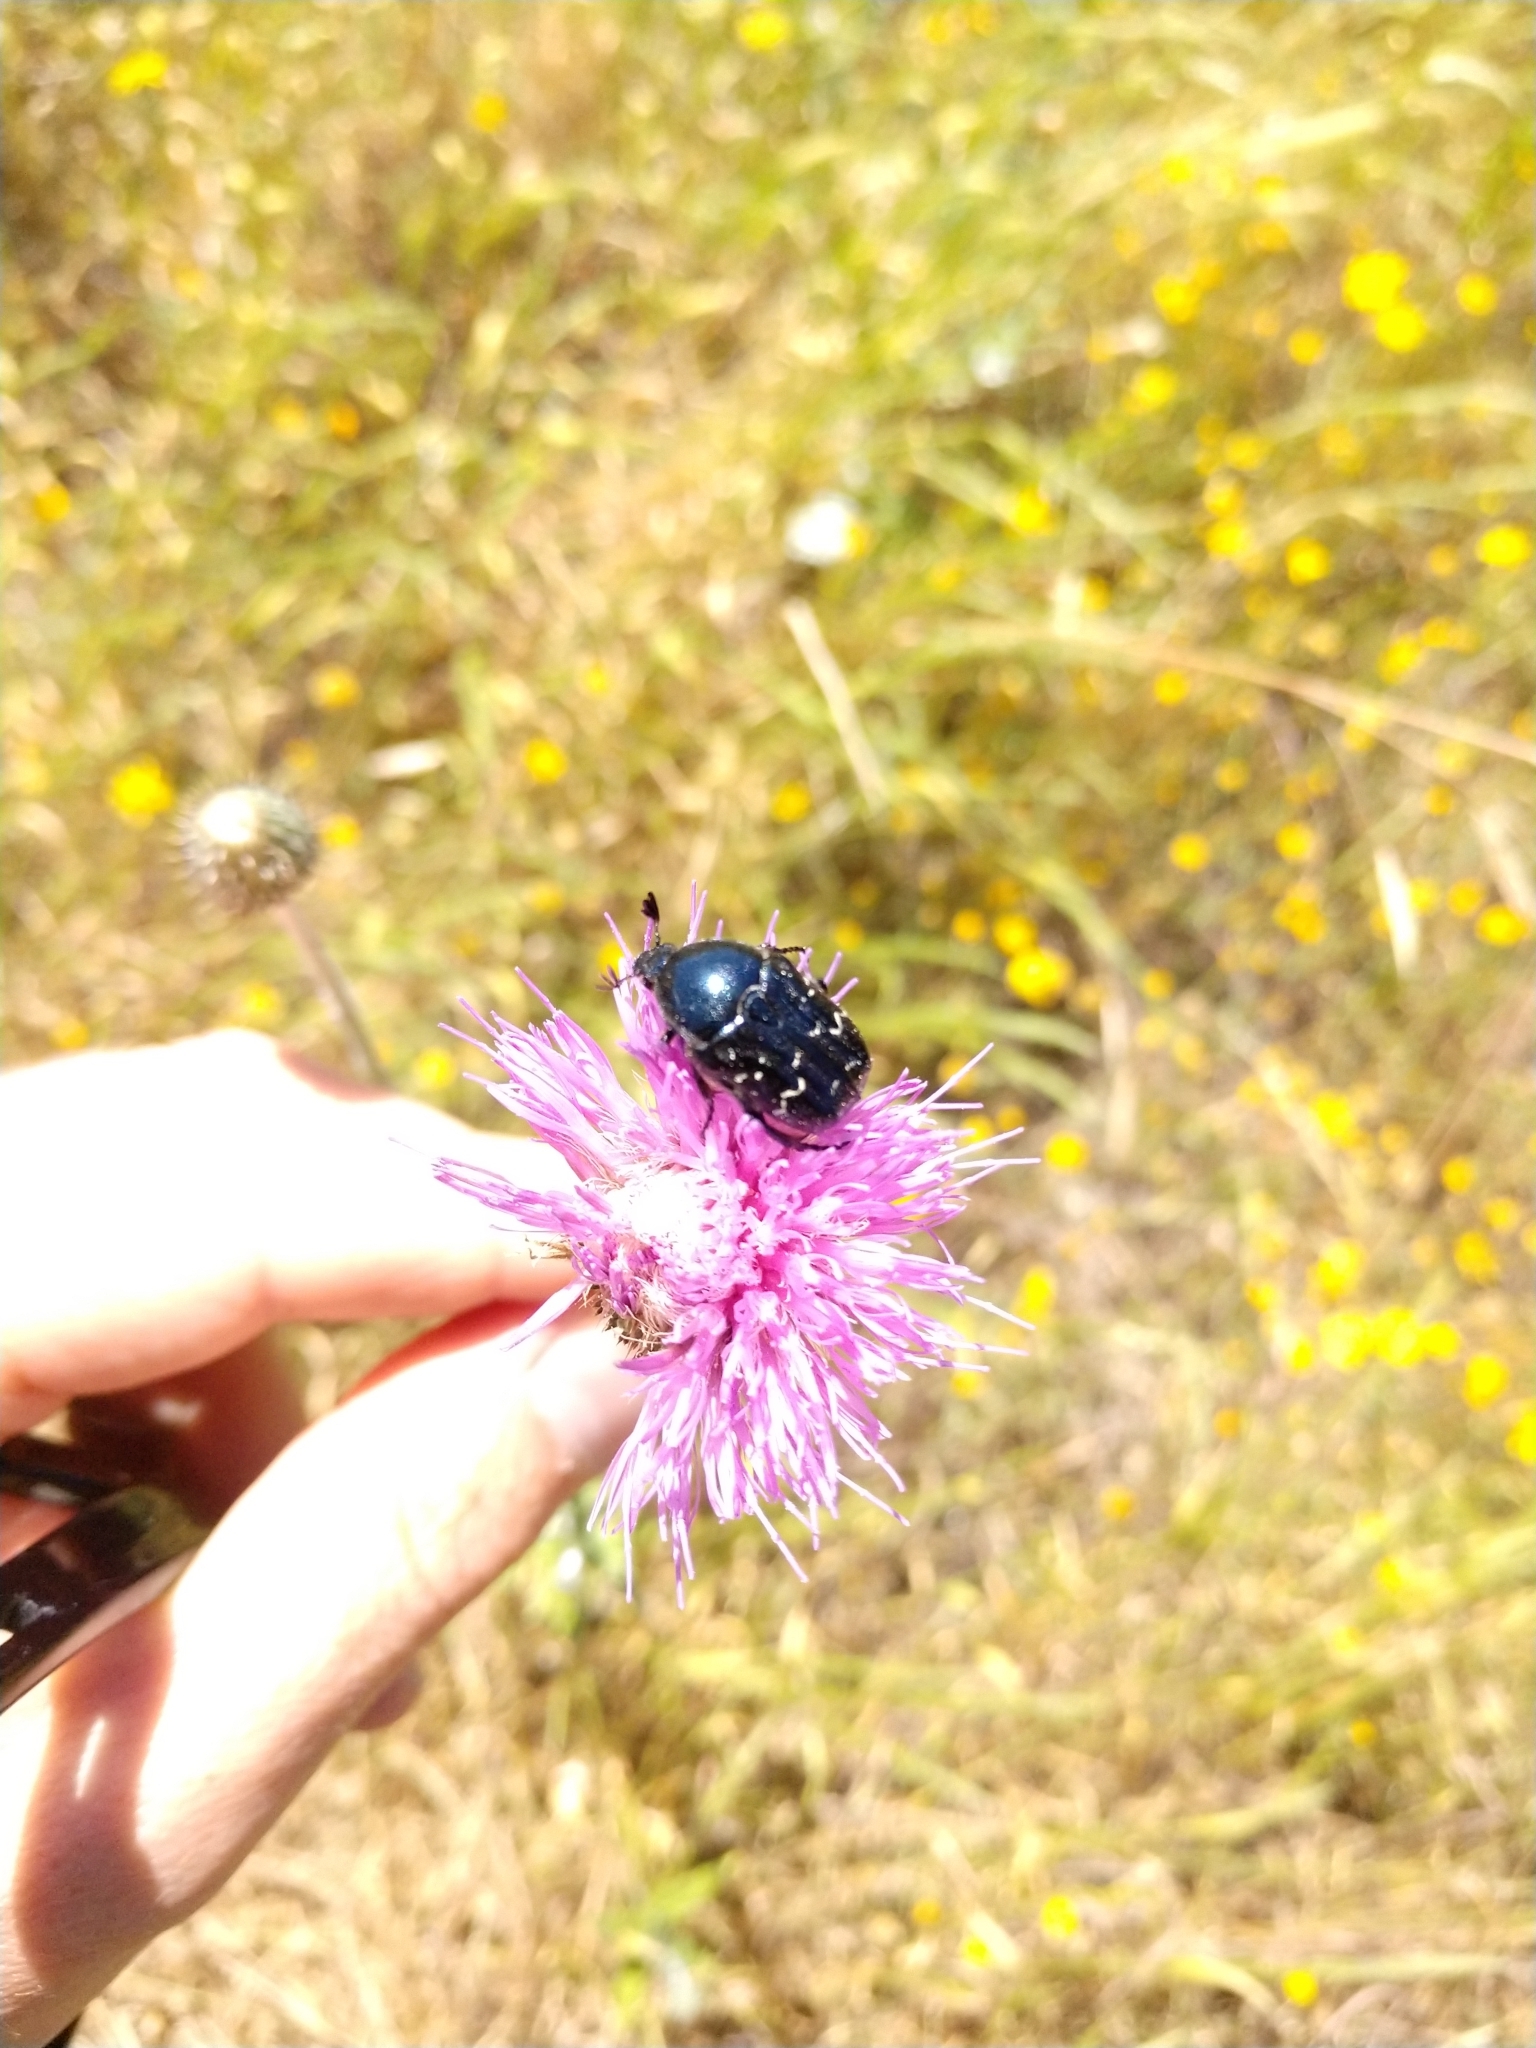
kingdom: Animalia
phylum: Arthropoda
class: Insecta
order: Coleoptera
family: Scarabaeidae
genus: Euphoria
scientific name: Euphoria sepulcralis
